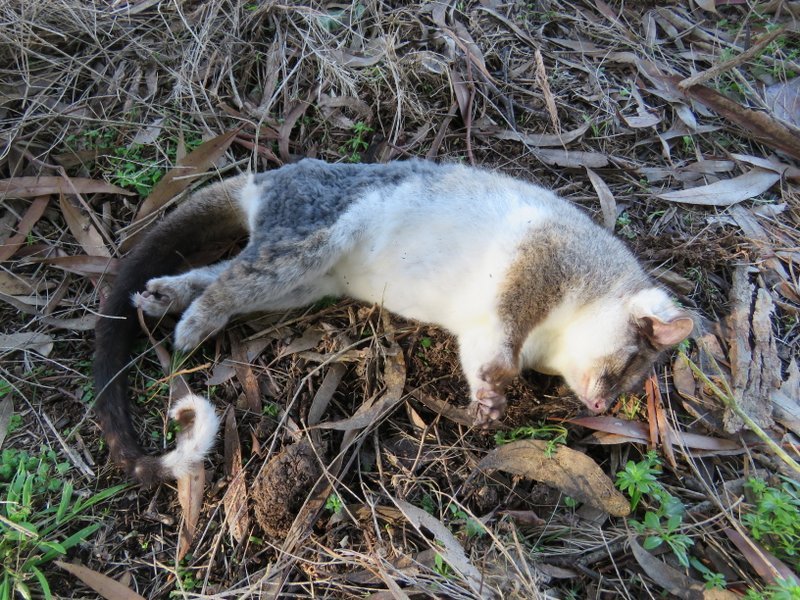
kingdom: Animalia
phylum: Chordata
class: Mammalia
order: Diprotodontia
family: Pseudocheiridae
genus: Pseudocheirus
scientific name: Pseudocheirus peregrinus
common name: Common ringtail possum
